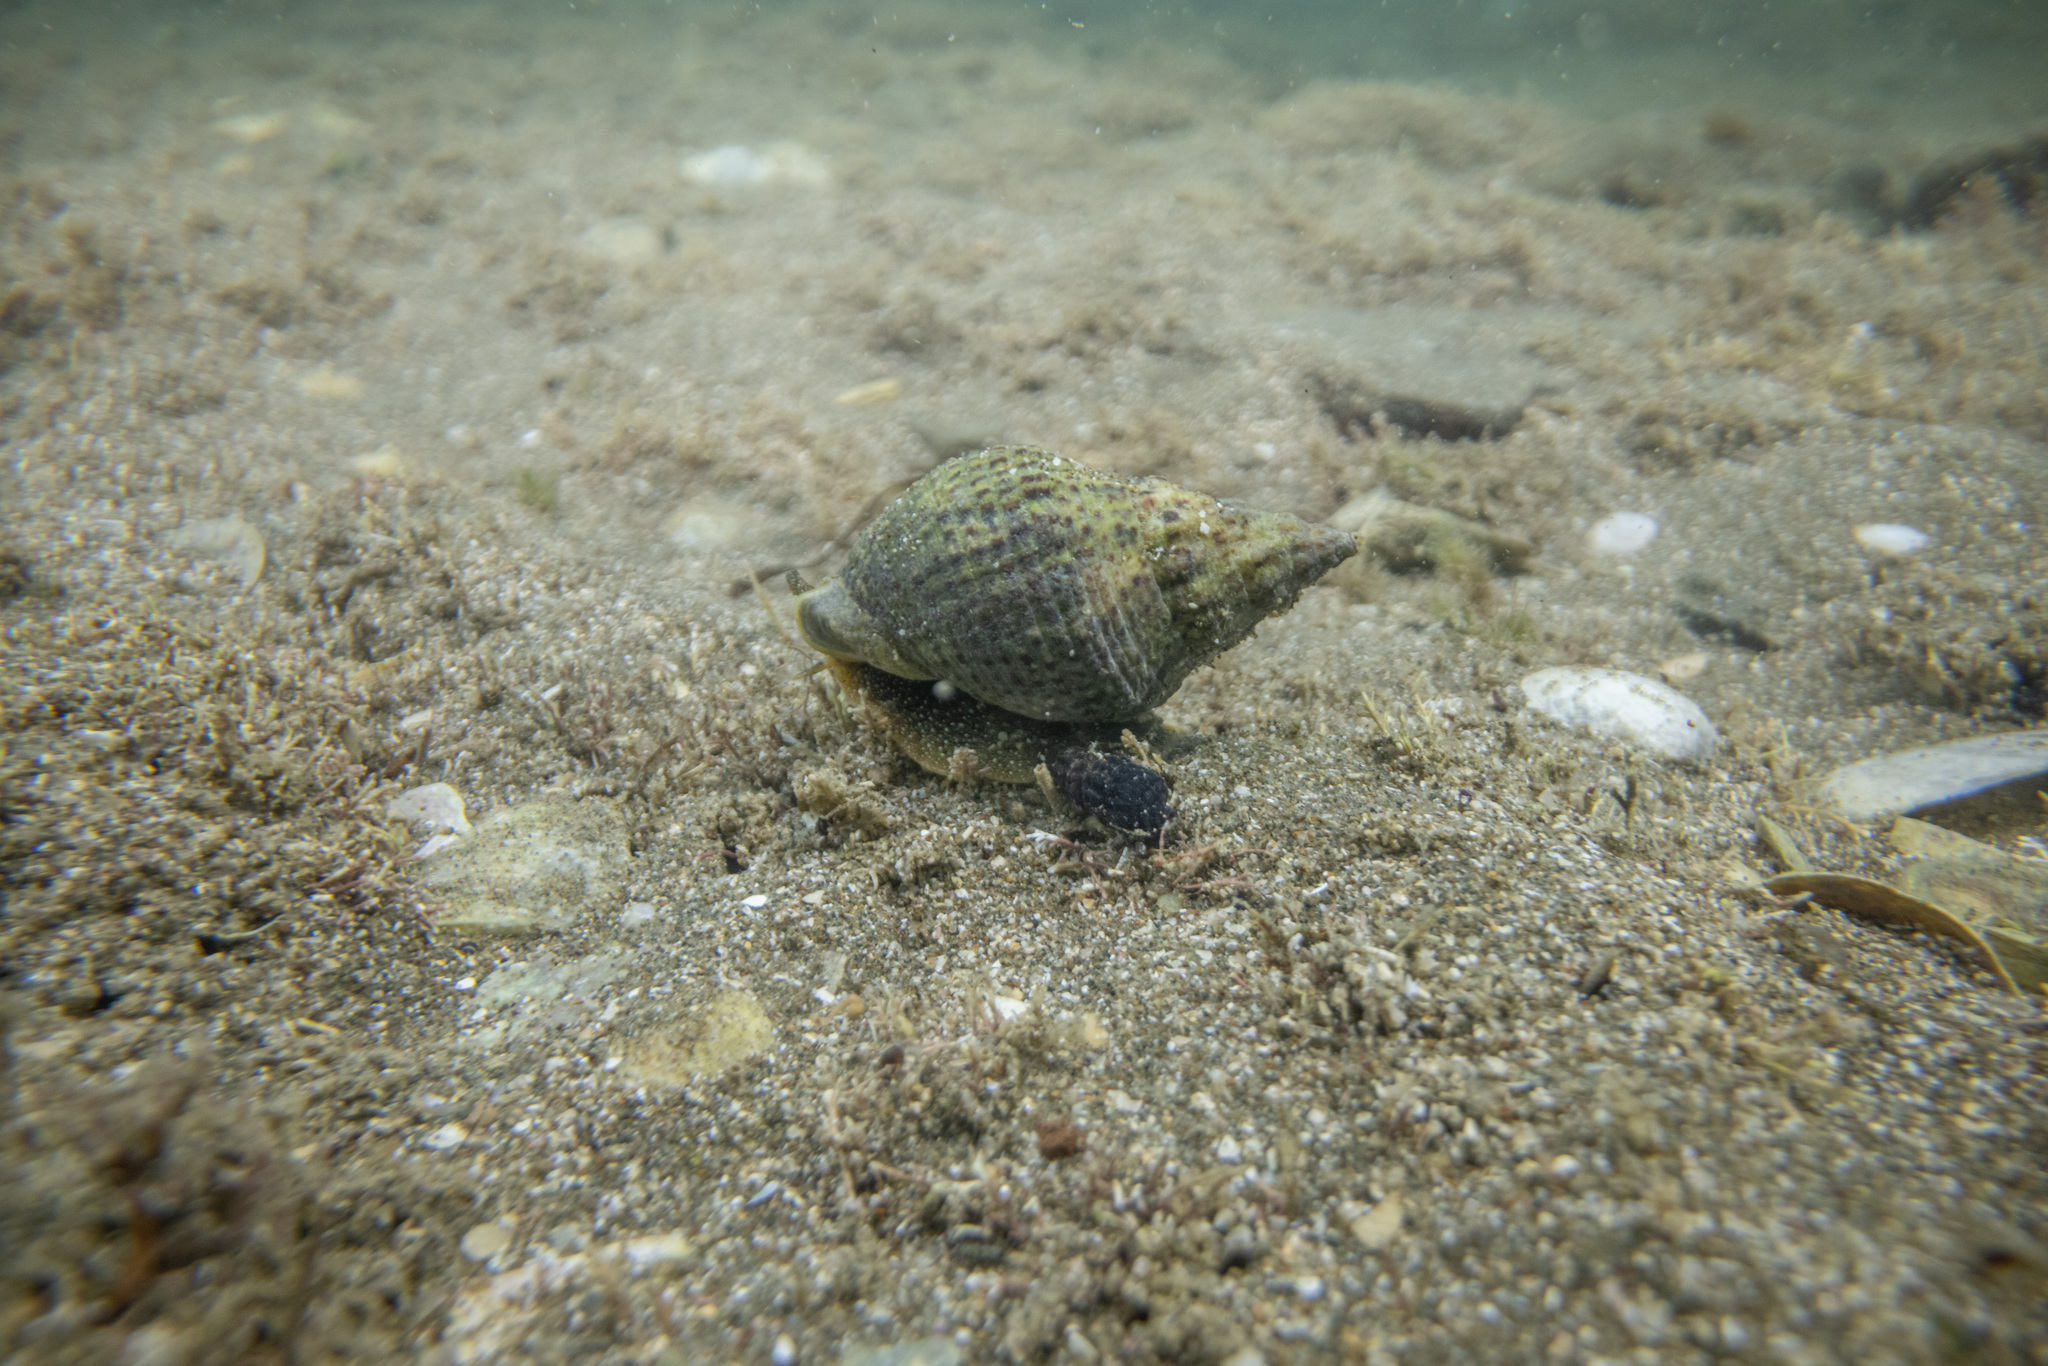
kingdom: Animalia
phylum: Mollusca
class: Gastropoda
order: Neogastropoda
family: Cominellidae
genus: Cominella
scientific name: Cominella adspersa
